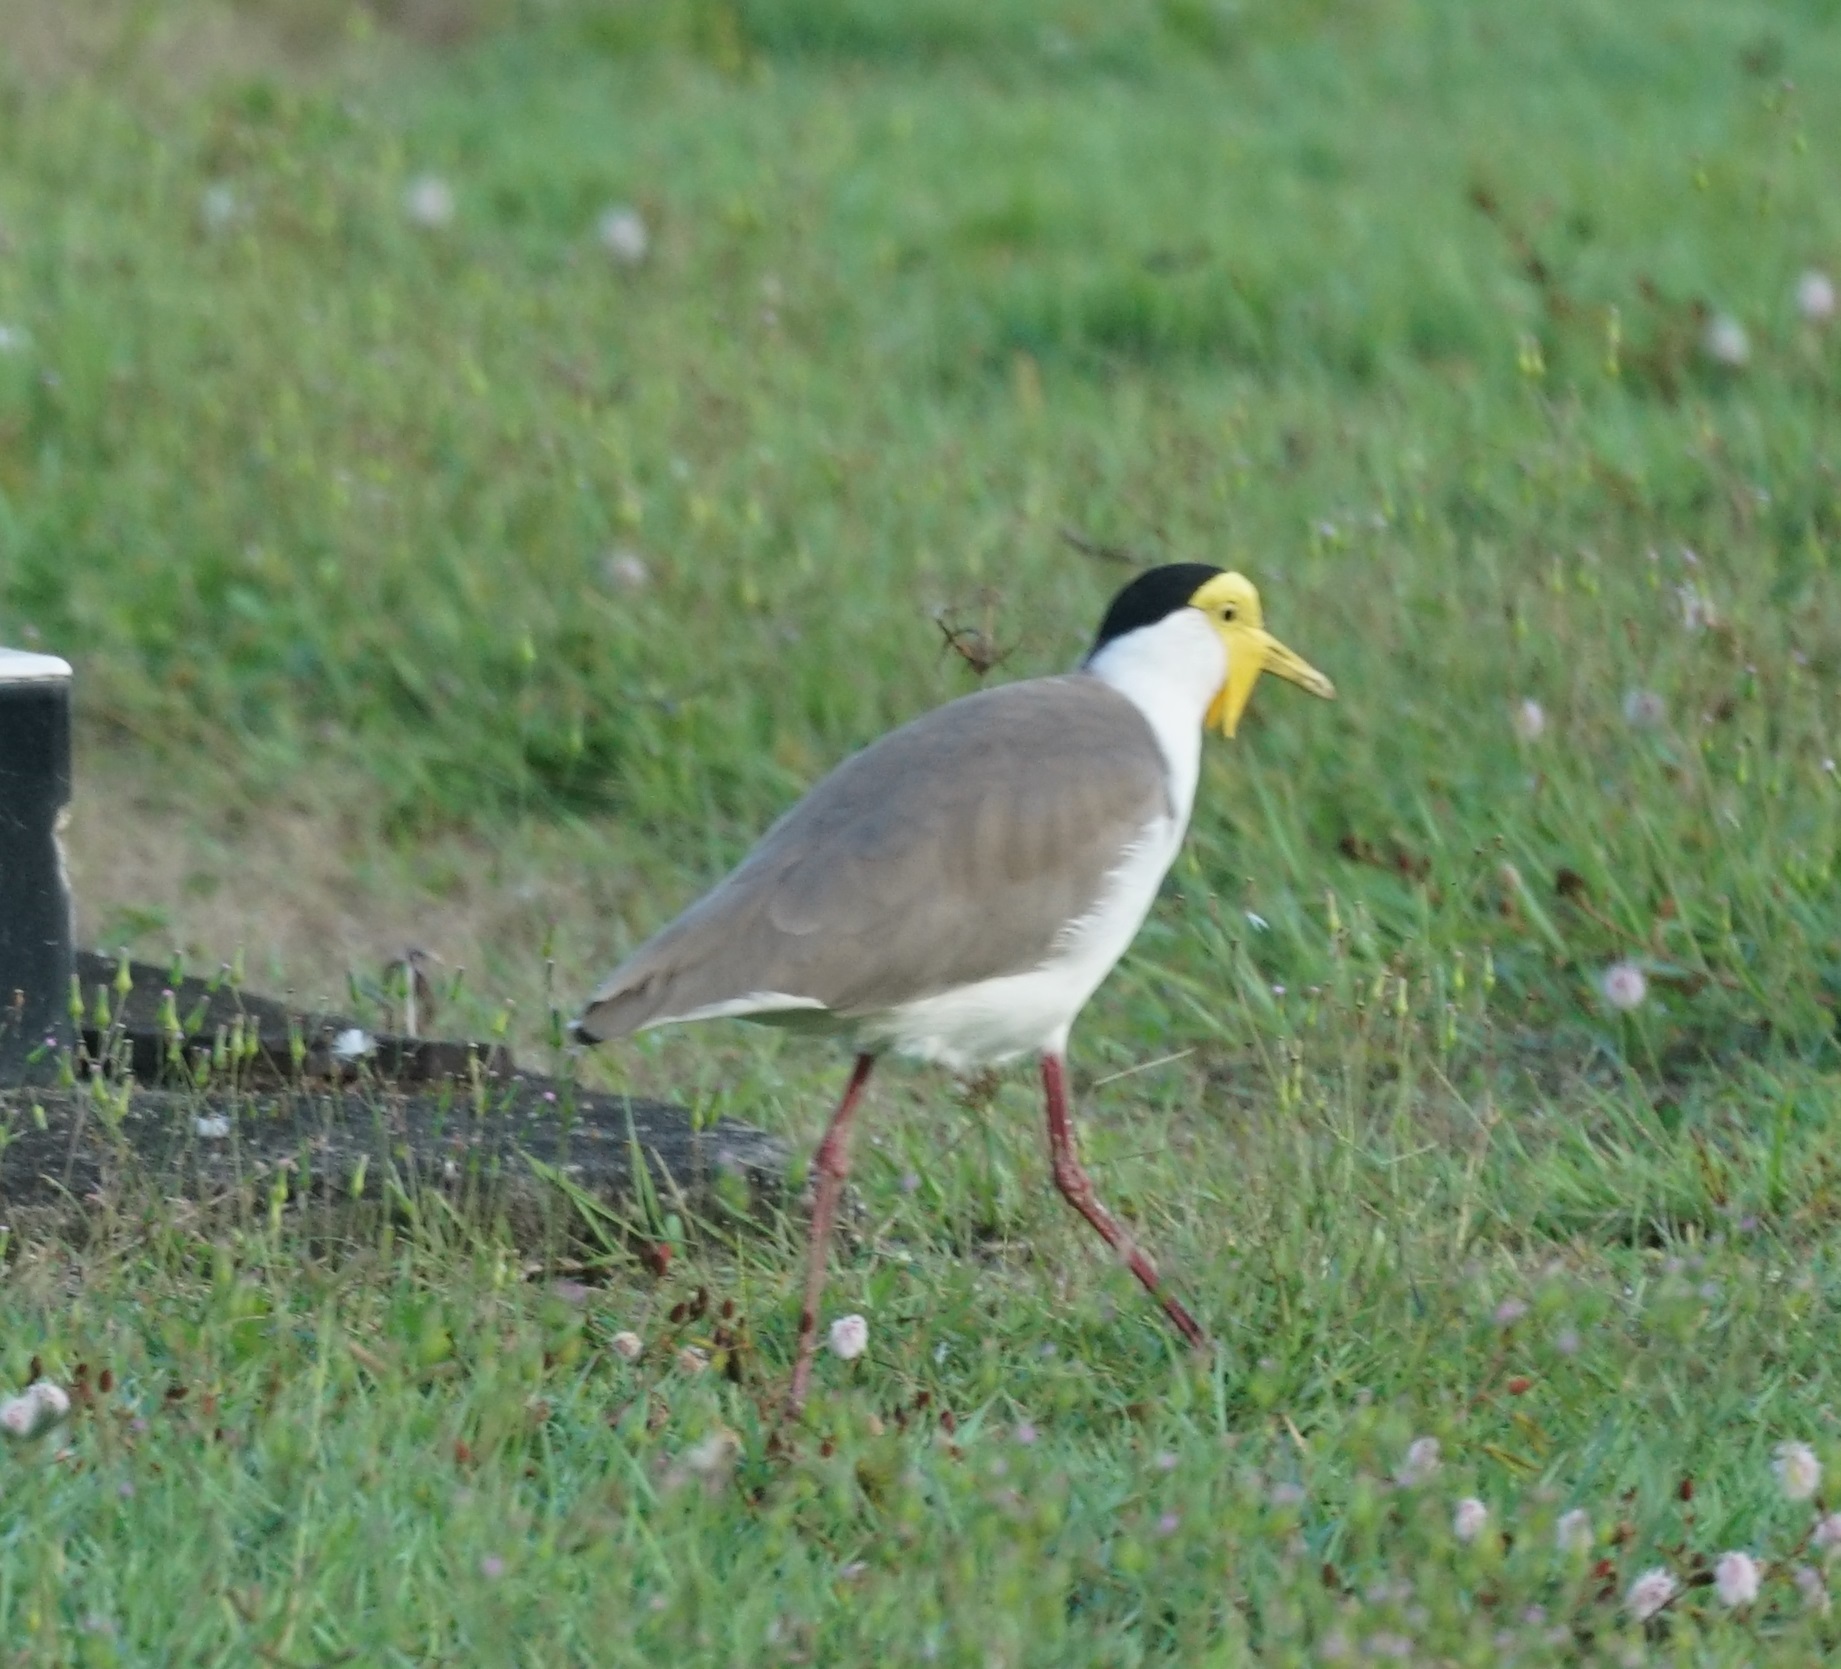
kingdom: Animalia
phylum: Chordata
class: Aves
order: Charadriiformes
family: Charadriidae
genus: Vanellus
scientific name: Vanellus miles
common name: Masked lapwing
